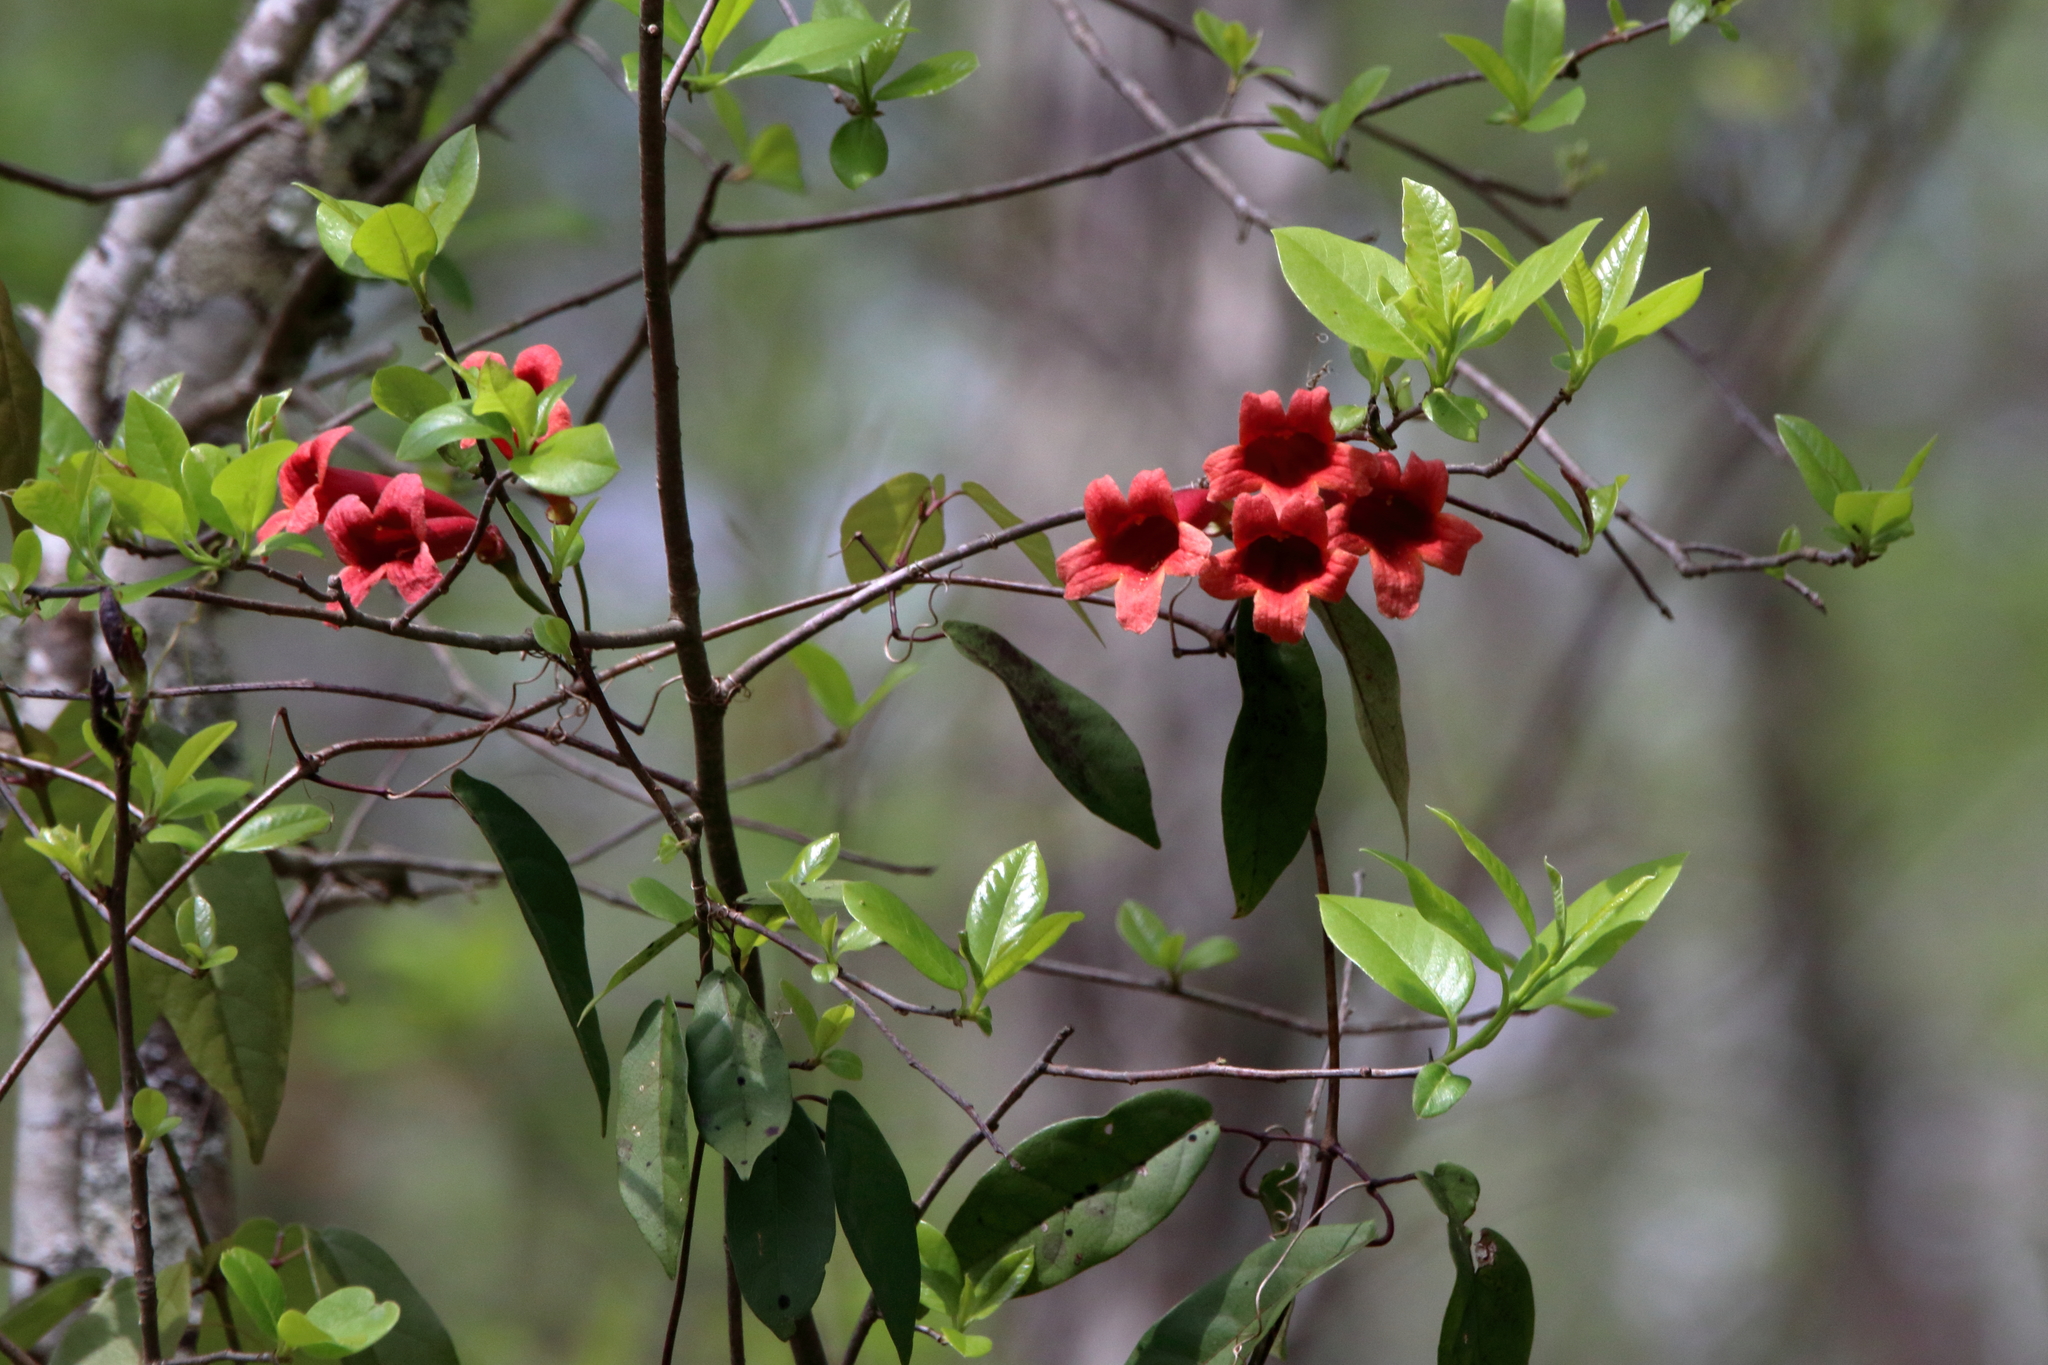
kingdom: Plantae
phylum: Tracheophyta
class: Magnoliopsida
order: Lamiales
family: Bignoniaceae
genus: Bignonia
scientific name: Bignonia capreolata
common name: Crossvine
